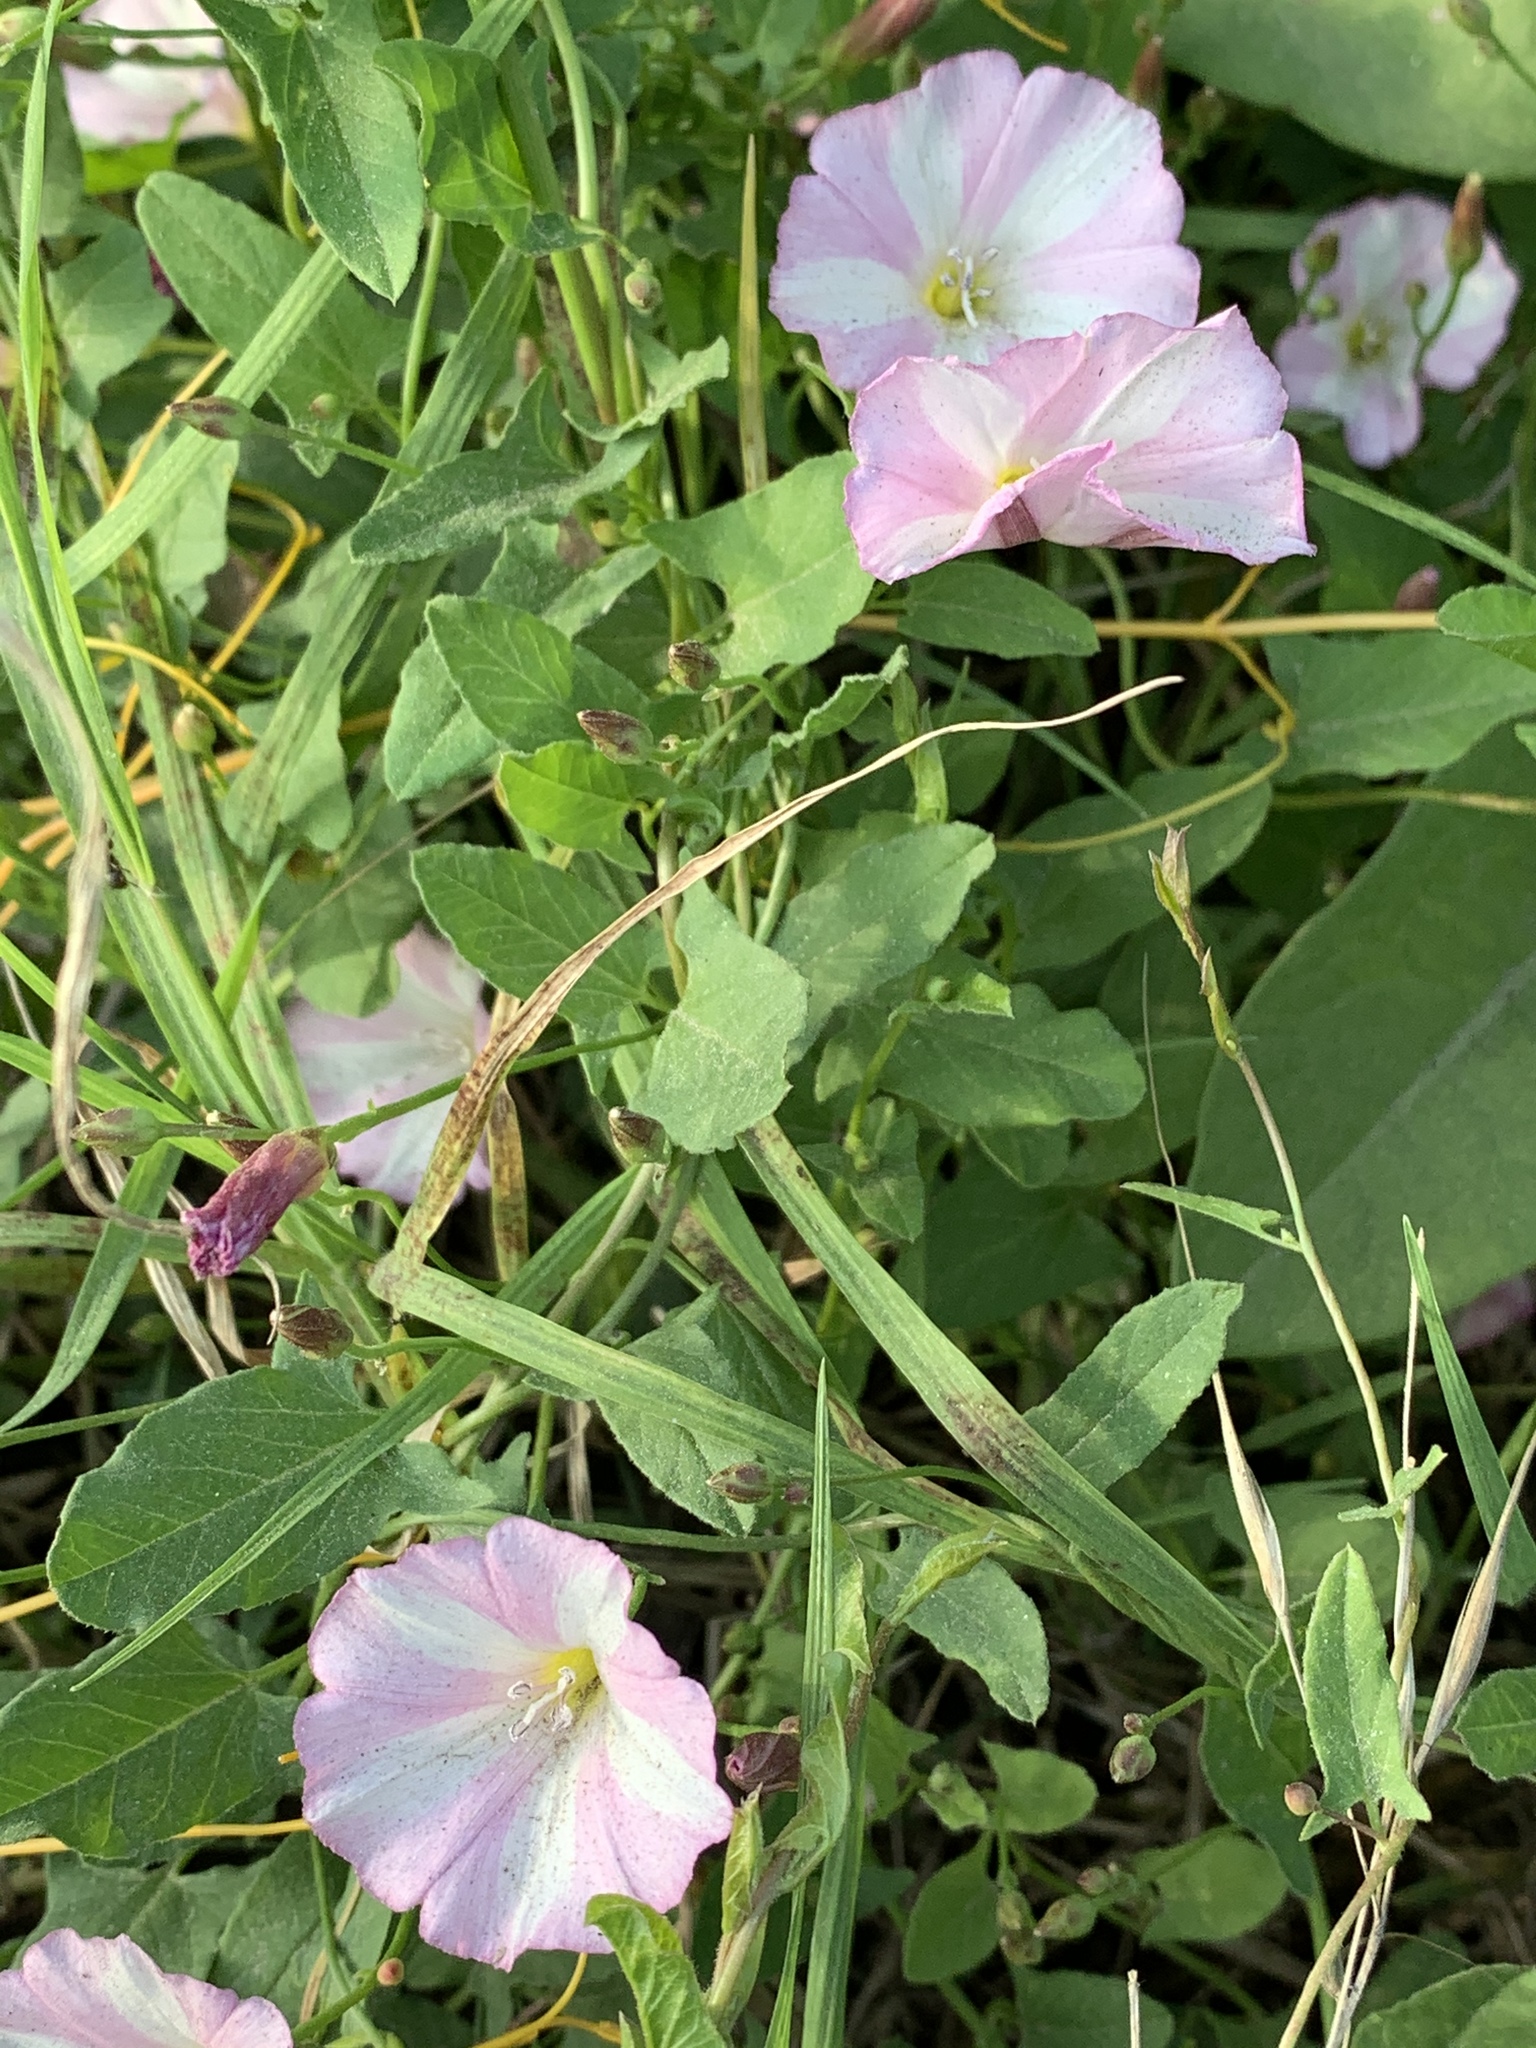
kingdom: Plantae
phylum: Tracheophyta
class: Magnoliopsida
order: Solanales
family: Convolvulaceae
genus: Convolvulus
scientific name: Convolvulus arvensis
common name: Field bindweed
